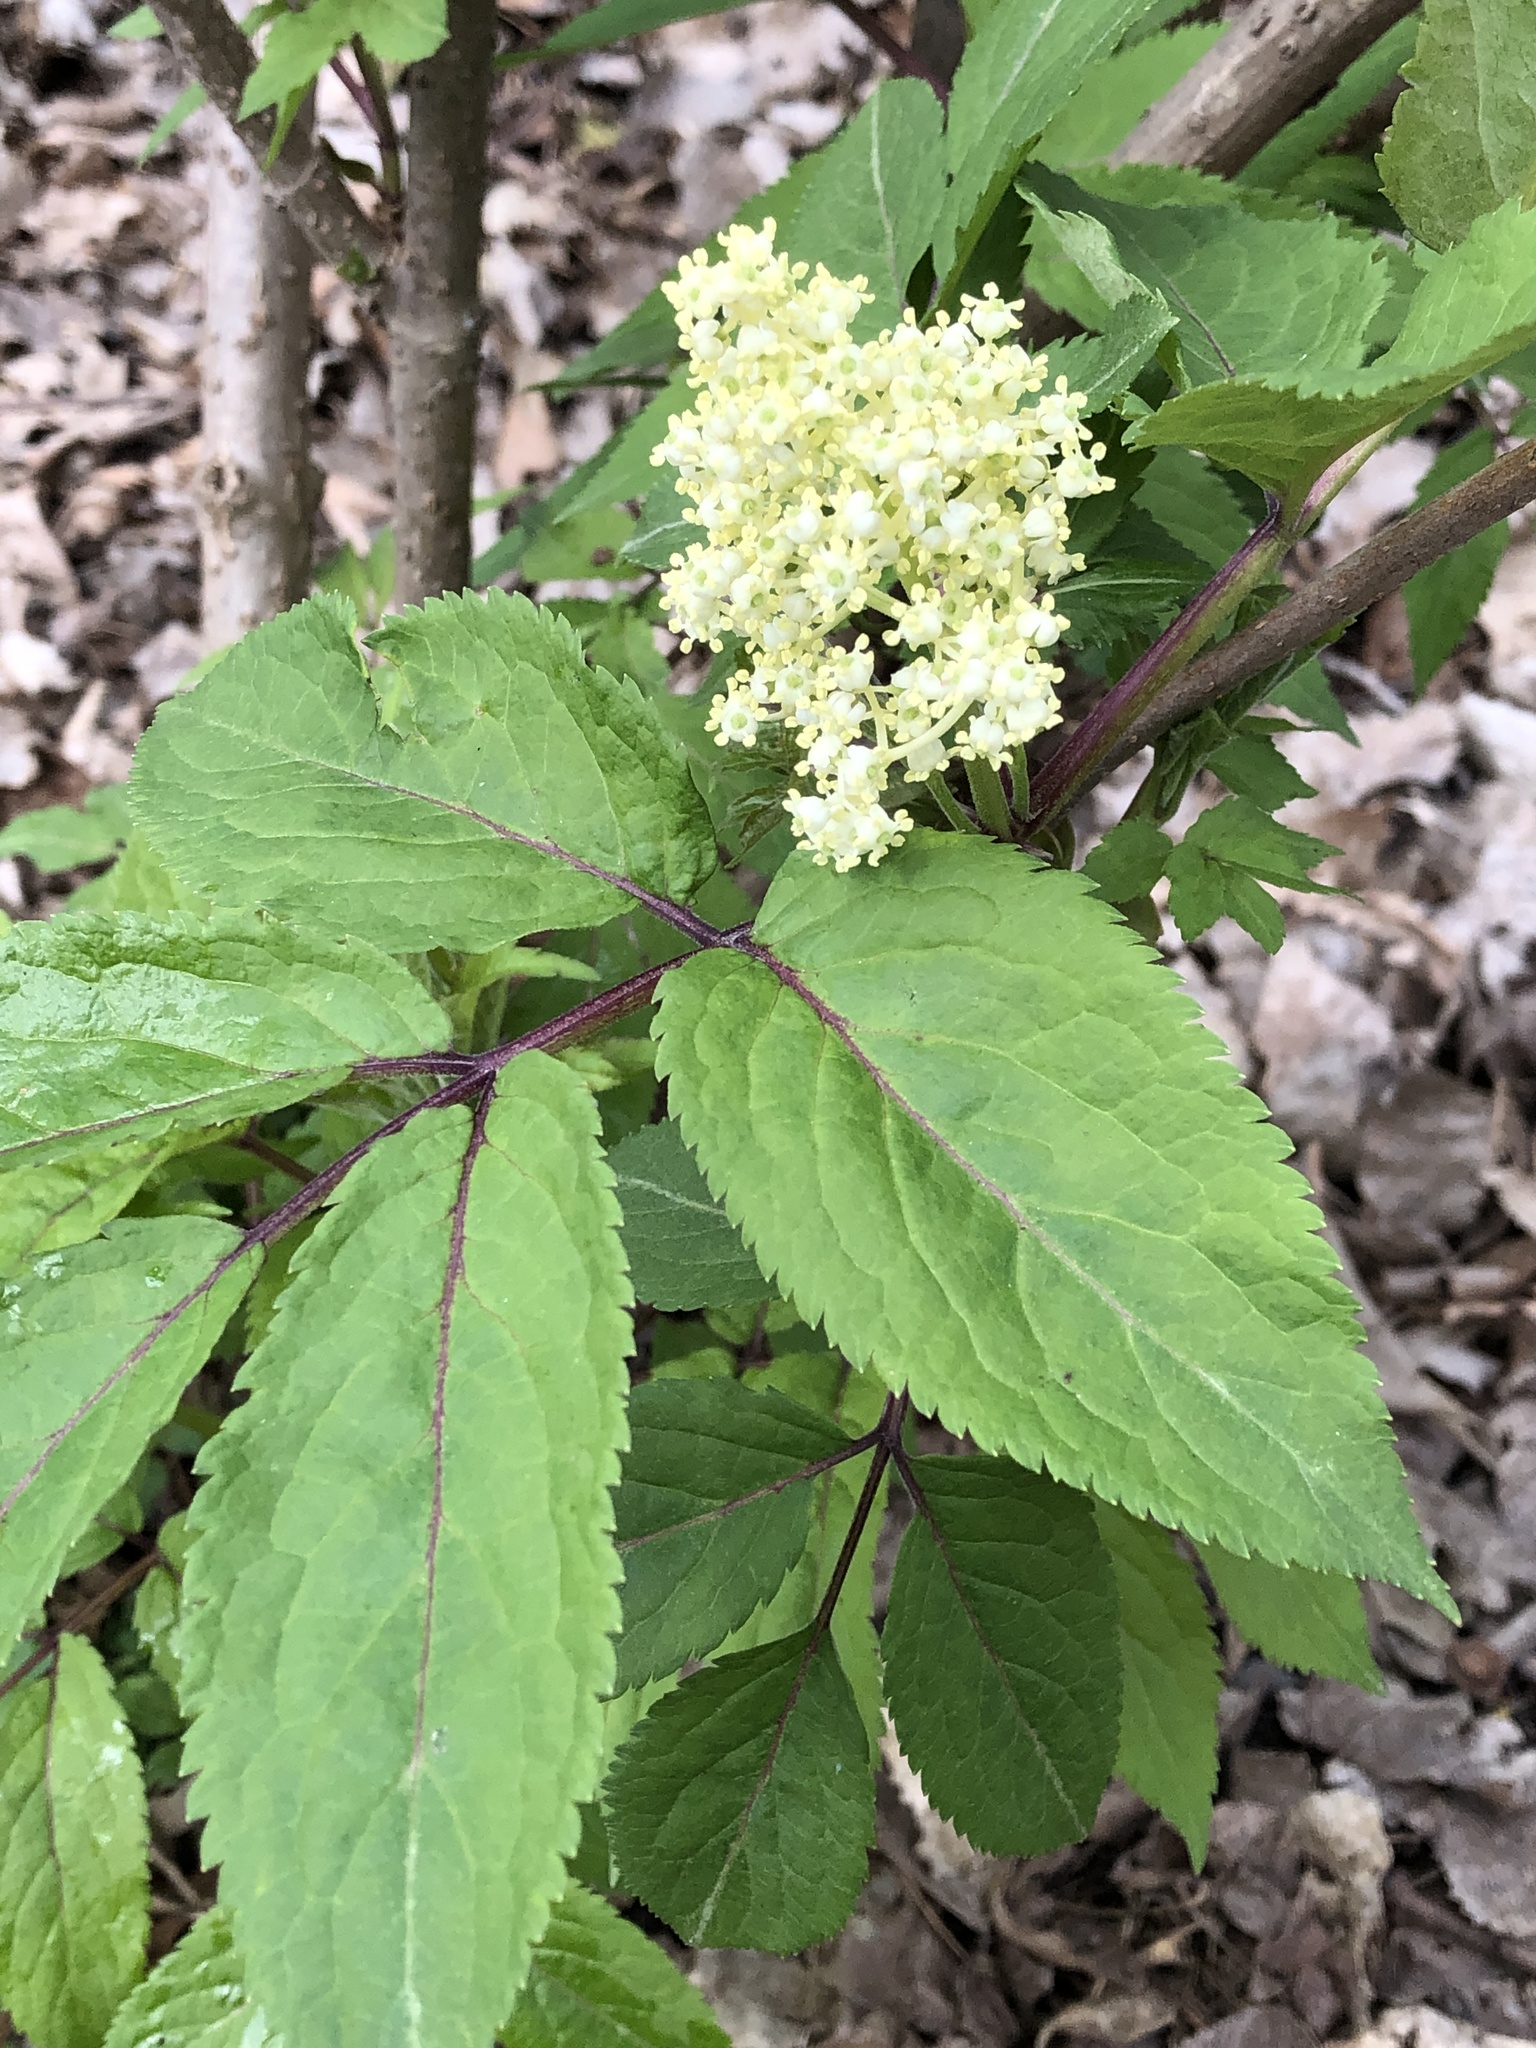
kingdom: Plantae
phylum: Tracheophyta
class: Magnoliopsida
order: Dipsacales
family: Viburnaceae
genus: Sambucus
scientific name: Sambucus racemosa
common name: Red-berried elder
